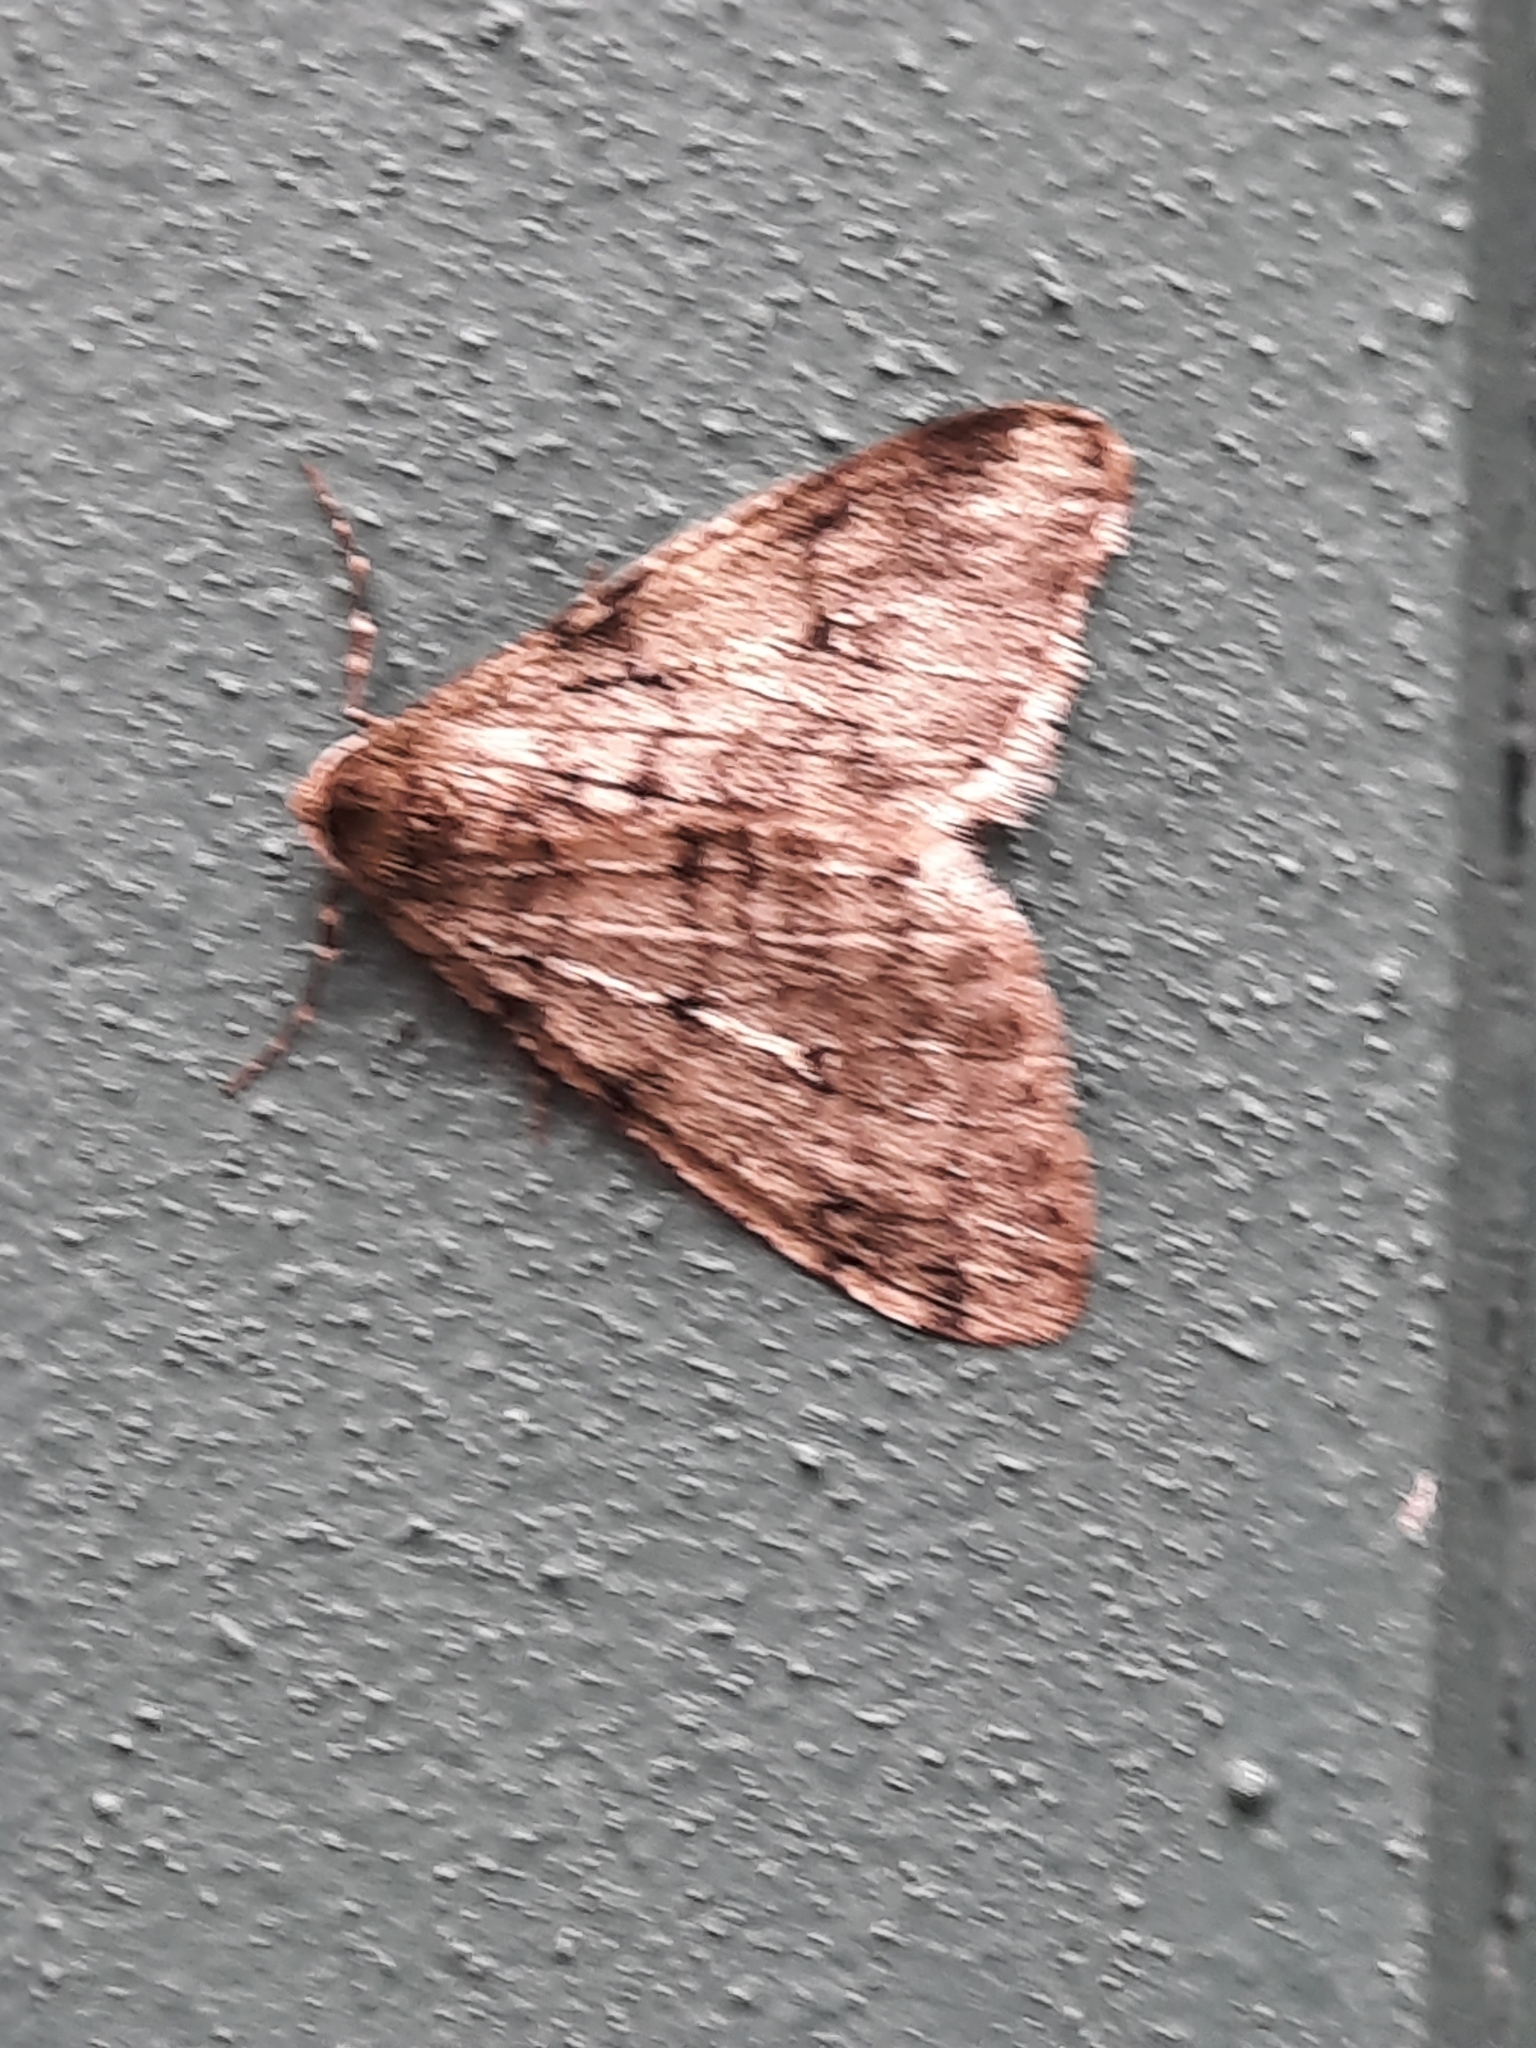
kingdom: Animalia
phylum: Arthropoda
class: Insecta
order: Lepidoptera
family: Geometridae
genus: Phigalia
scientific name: Phigalia strigataria
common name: Small phigalia
